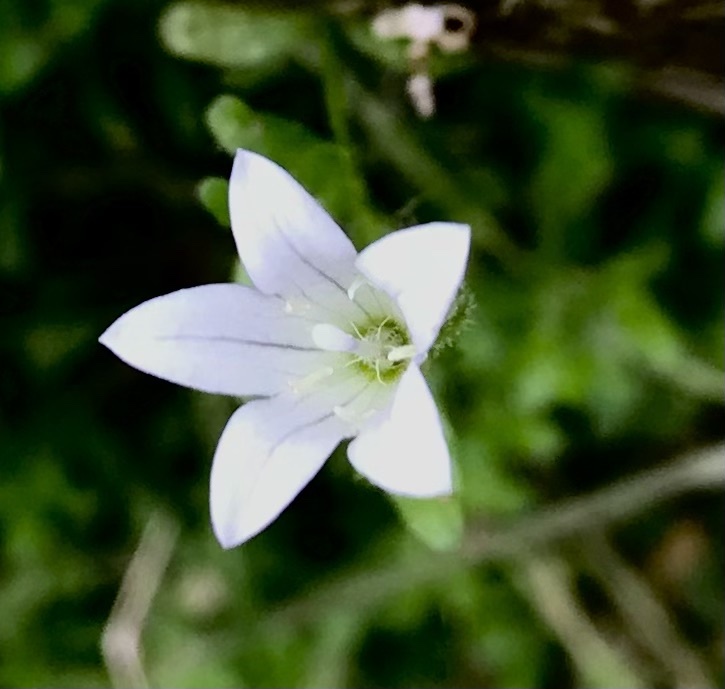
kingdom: Plantae
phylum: Tracheophyta
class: Magnoliopsida
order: Asterales
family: Campanulaceae
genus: Wahlenbergia
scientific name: Wahlenbergia procumbens
